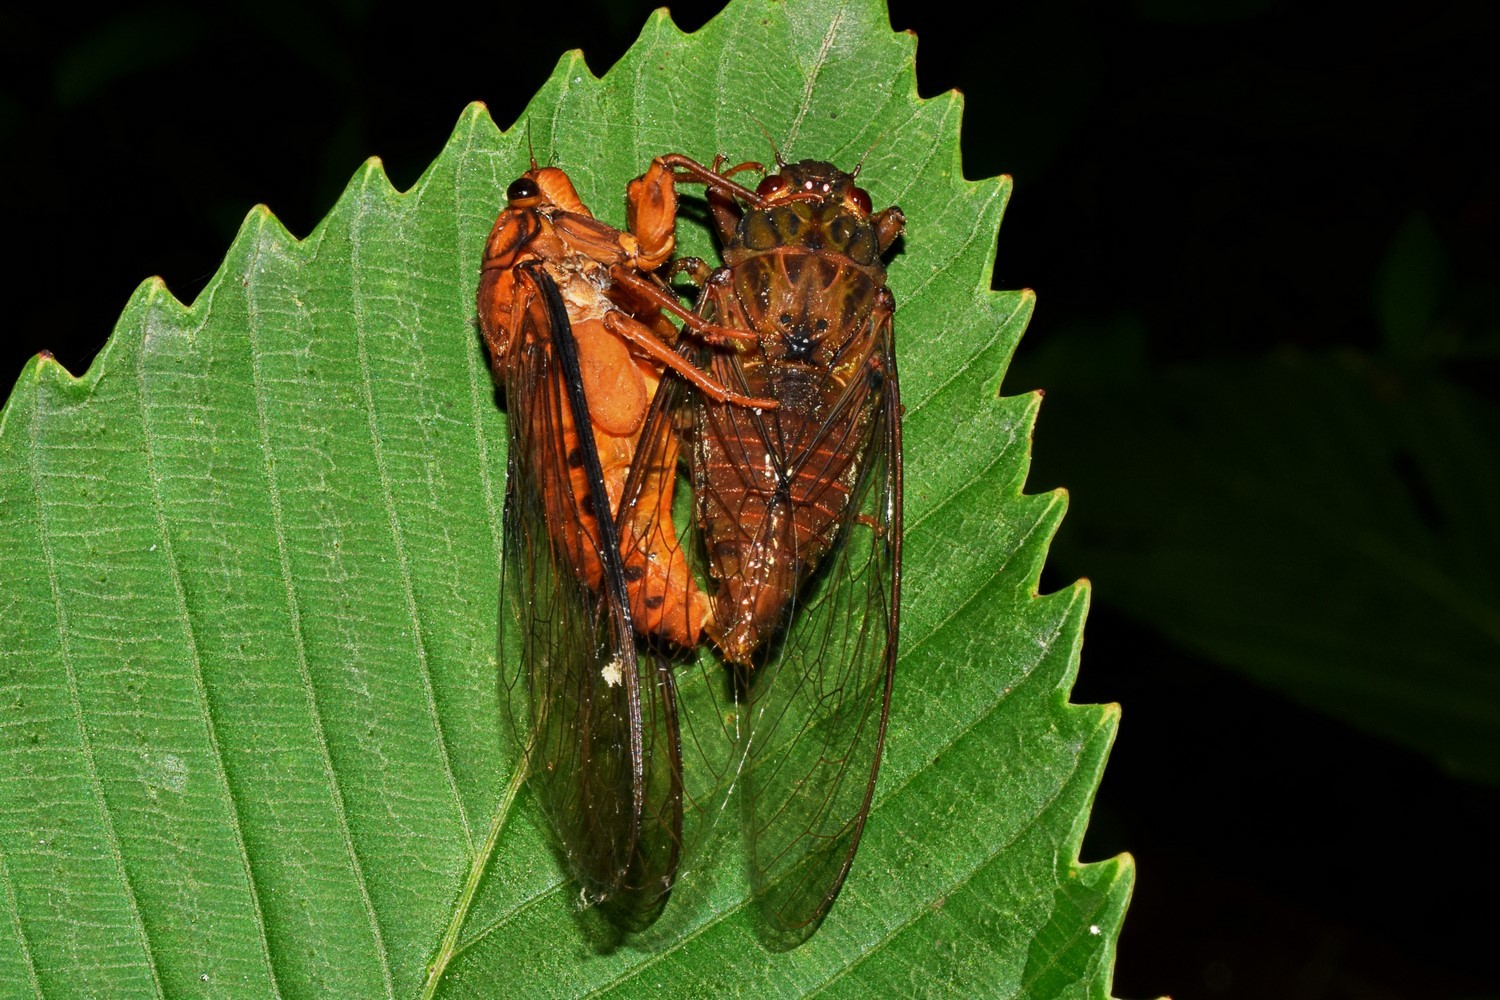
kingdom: Animalia
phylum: Arthropoda
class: Insecta
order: Hemiptera
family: Cicadidae
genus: Lahugada
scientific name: Lahugada dohertyi
